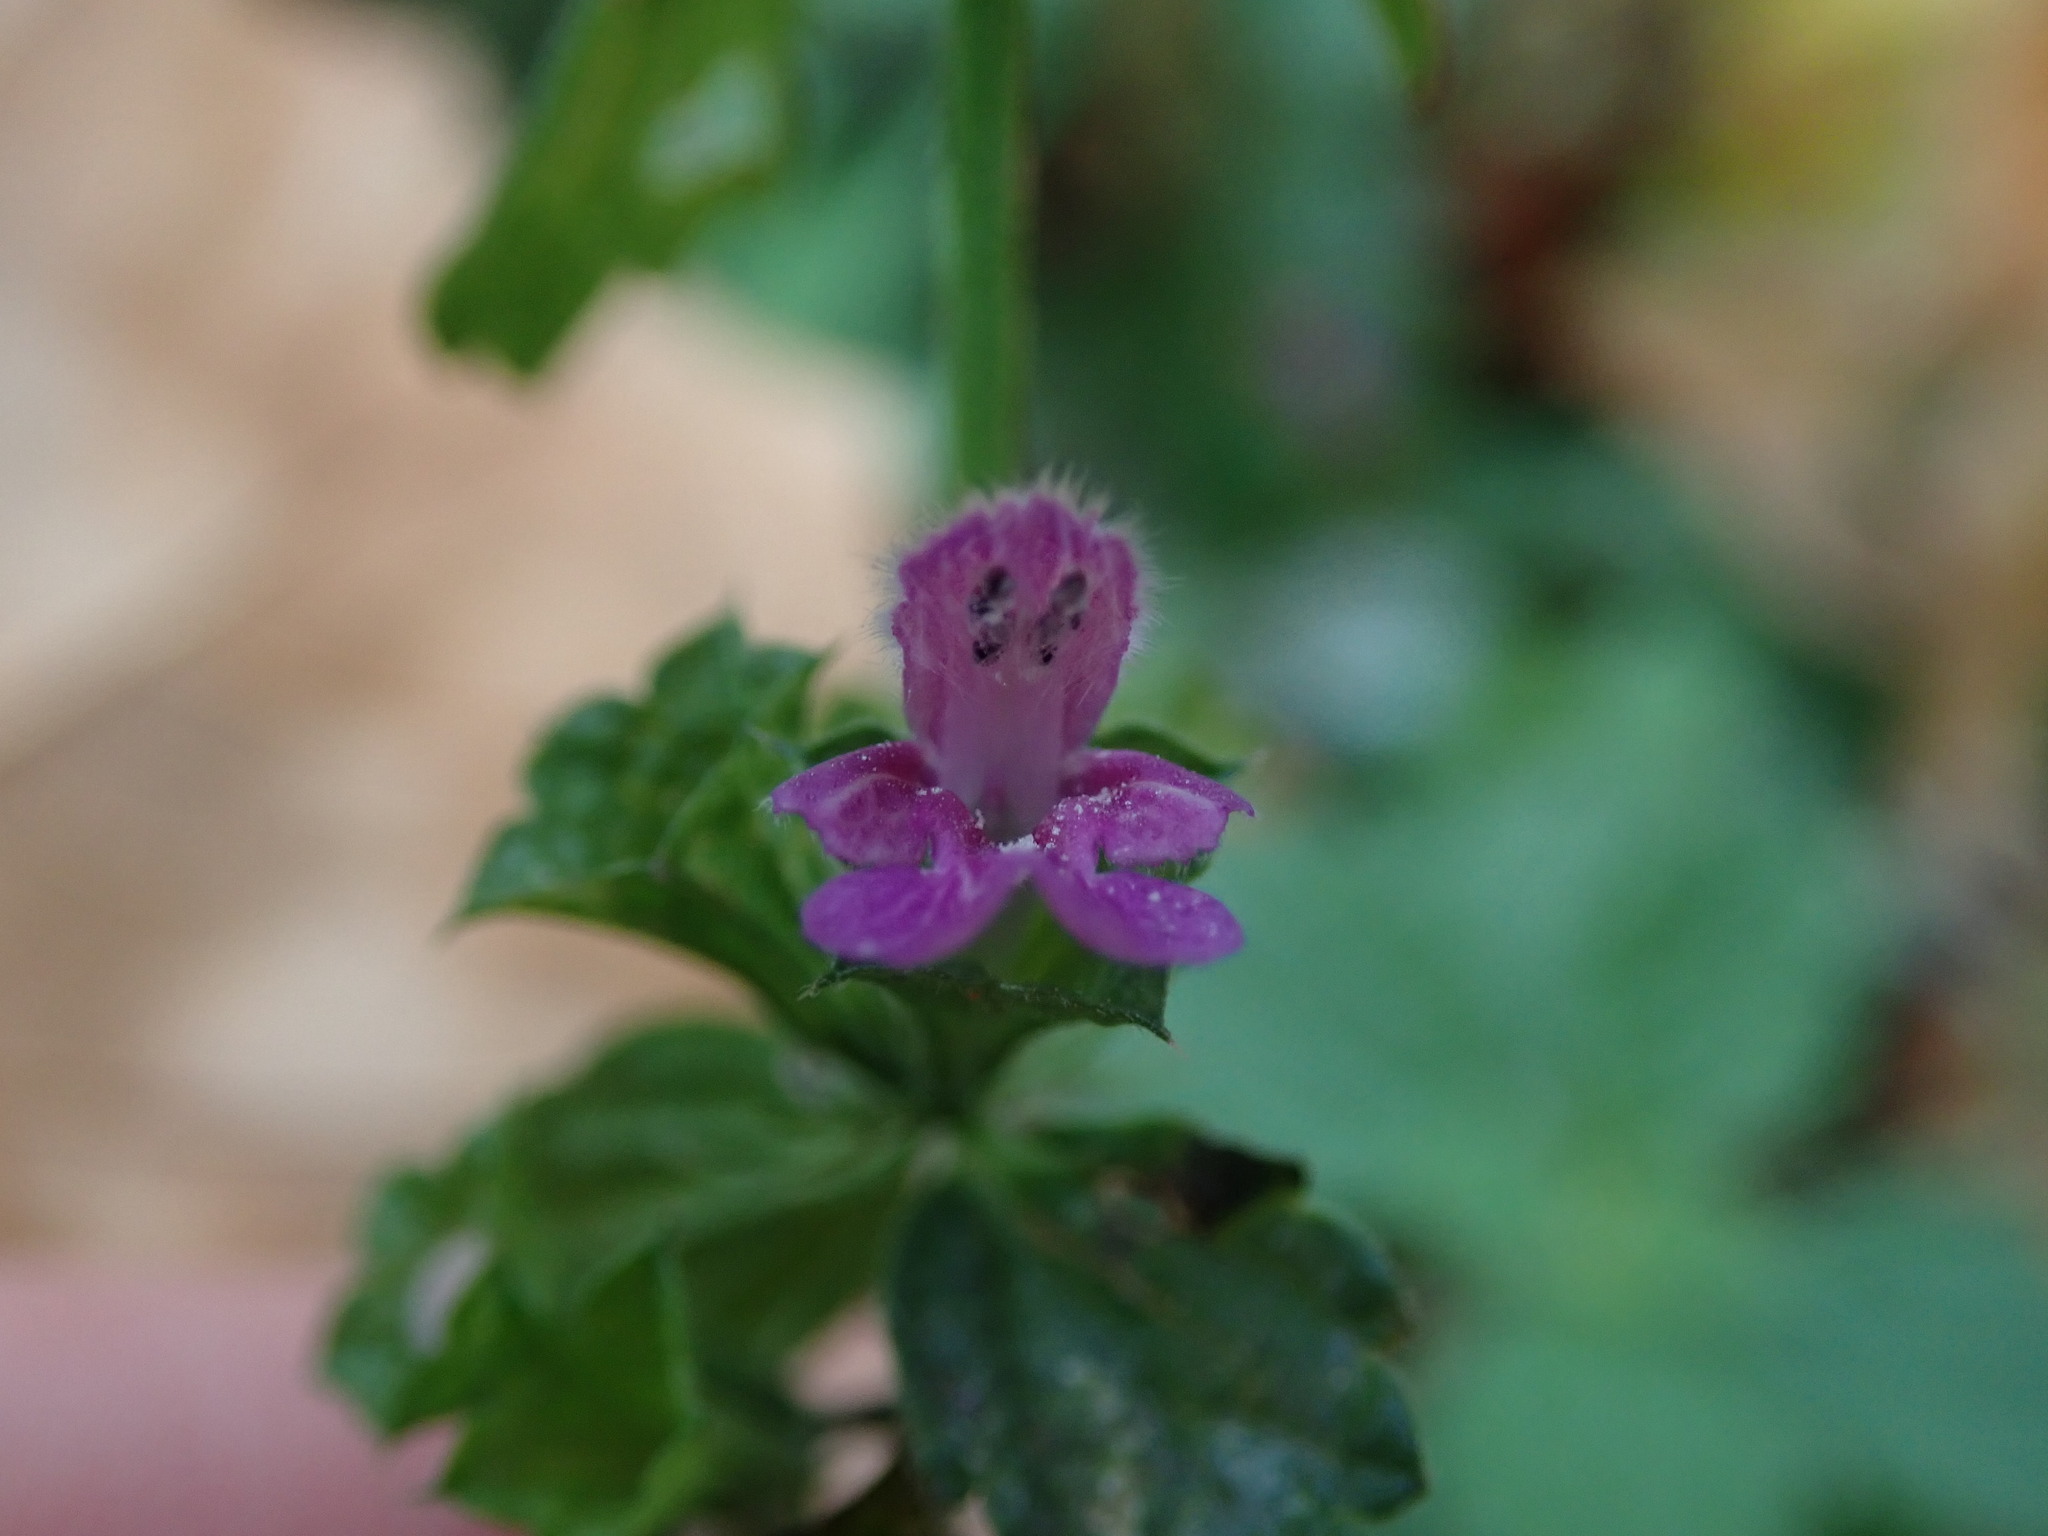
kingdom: Plantae
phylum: Tracheophyta
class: Magnoliopsida
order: Lamiales
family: Lamiaceae
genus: Ballota
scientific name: Ballota nigra
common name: Black horehound
